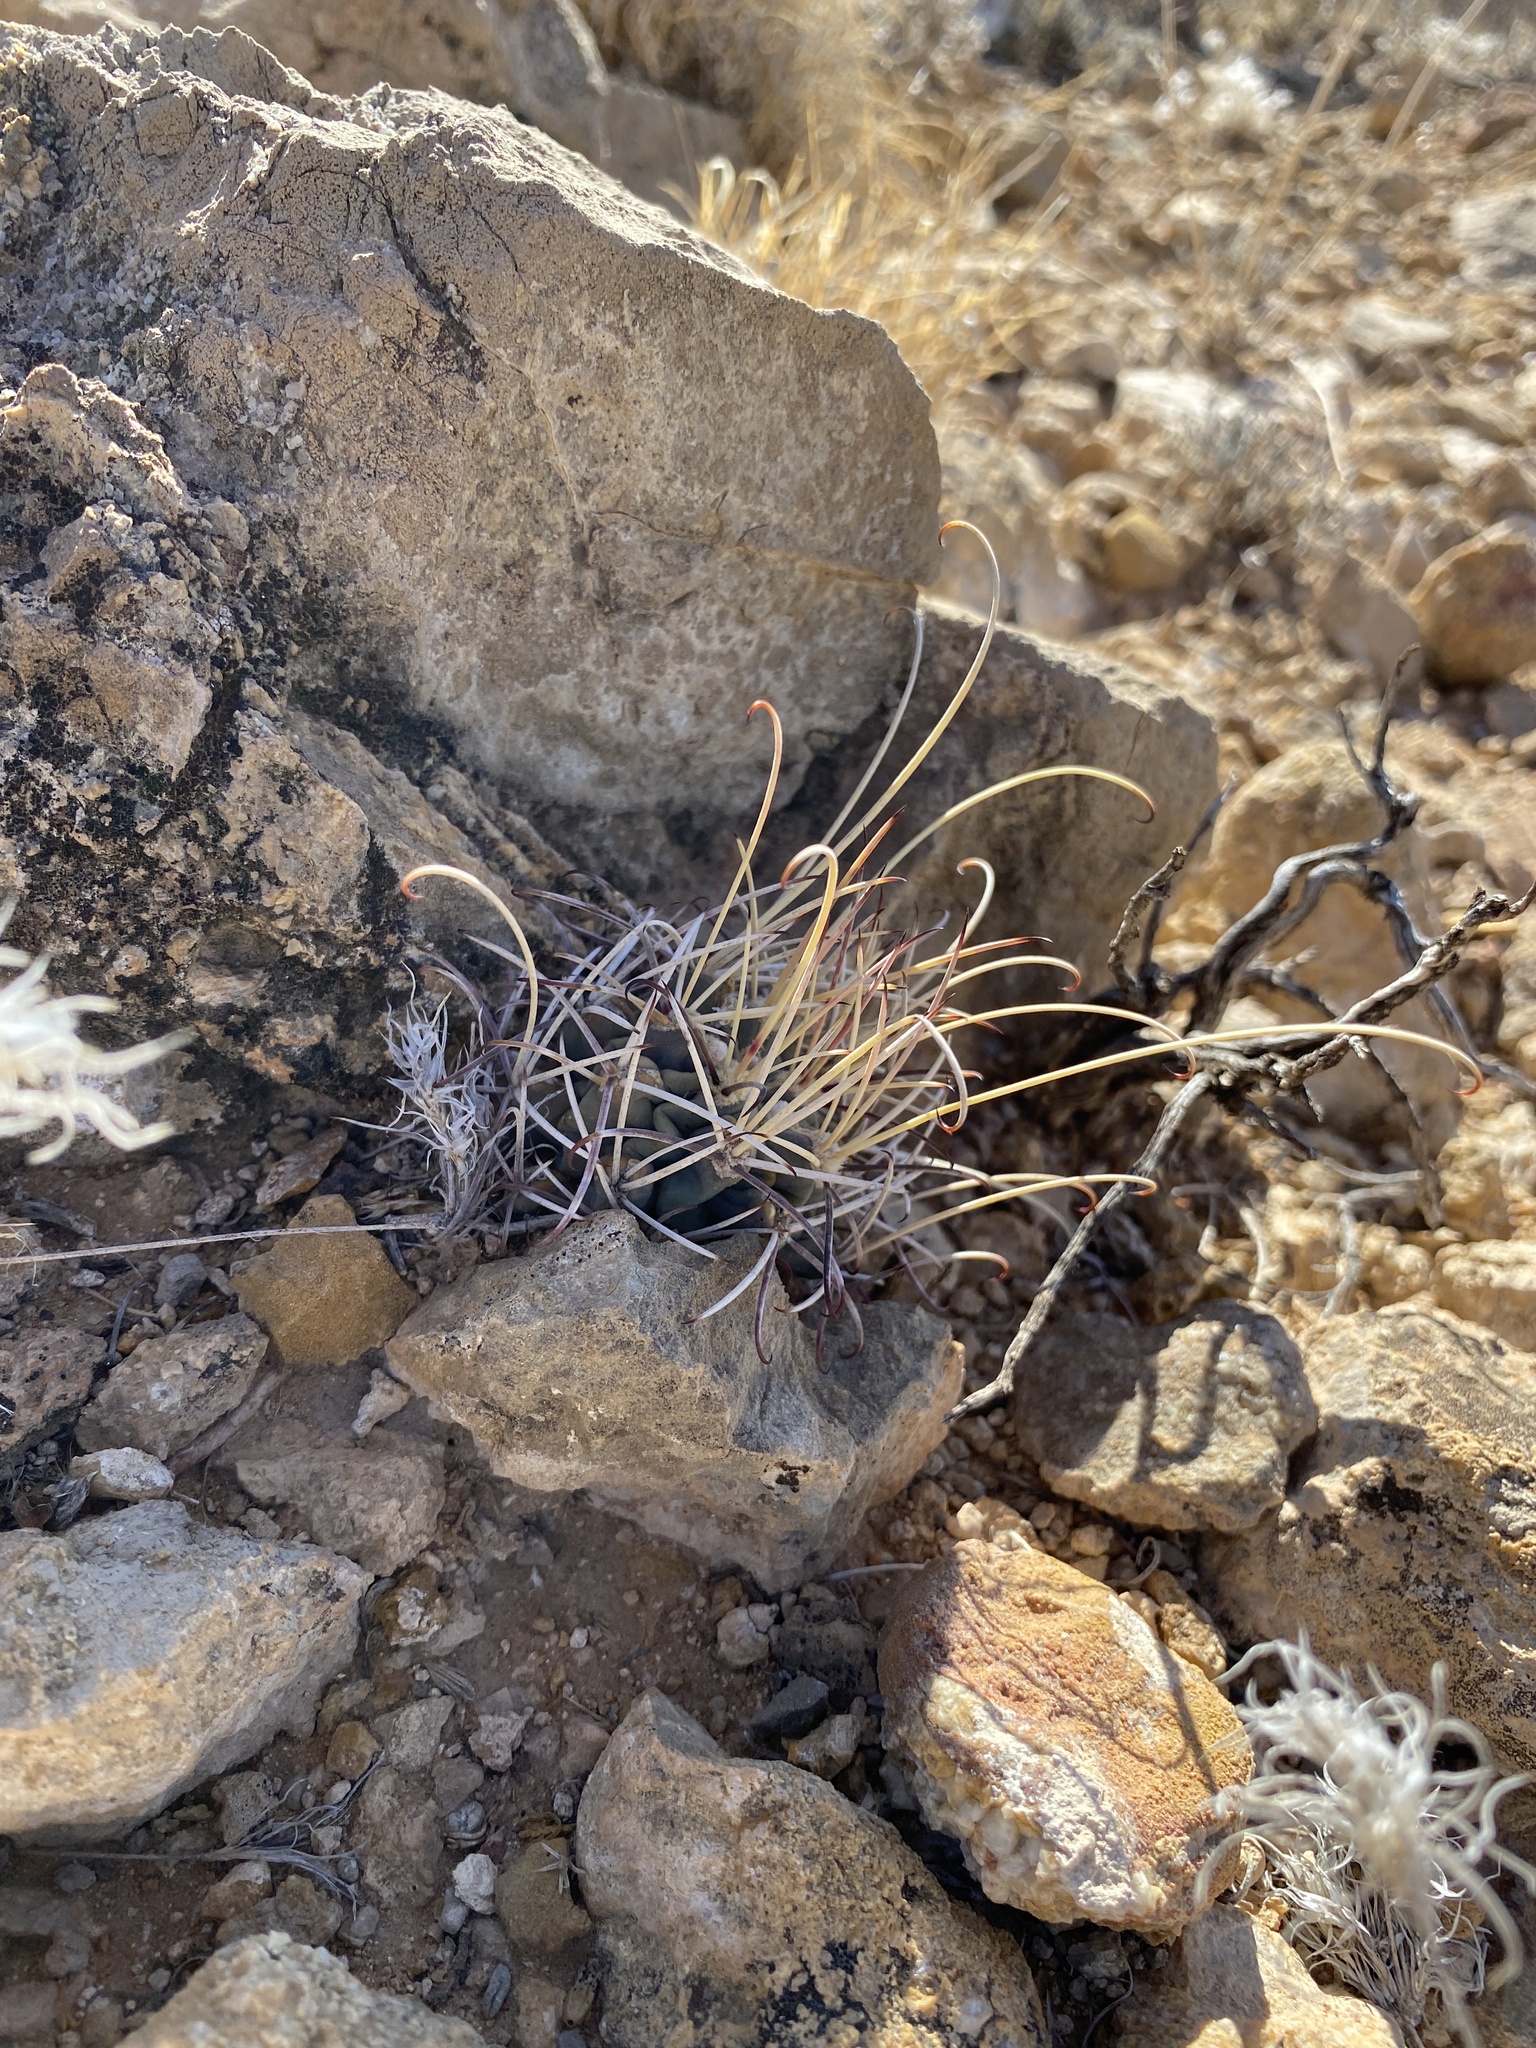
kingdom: Plantae
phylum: Tracheophyta
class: Magnoliopsida
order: Caryophyllales
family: Cactaceae
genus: Ferocactus
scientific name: Ferocactus uncinatus
